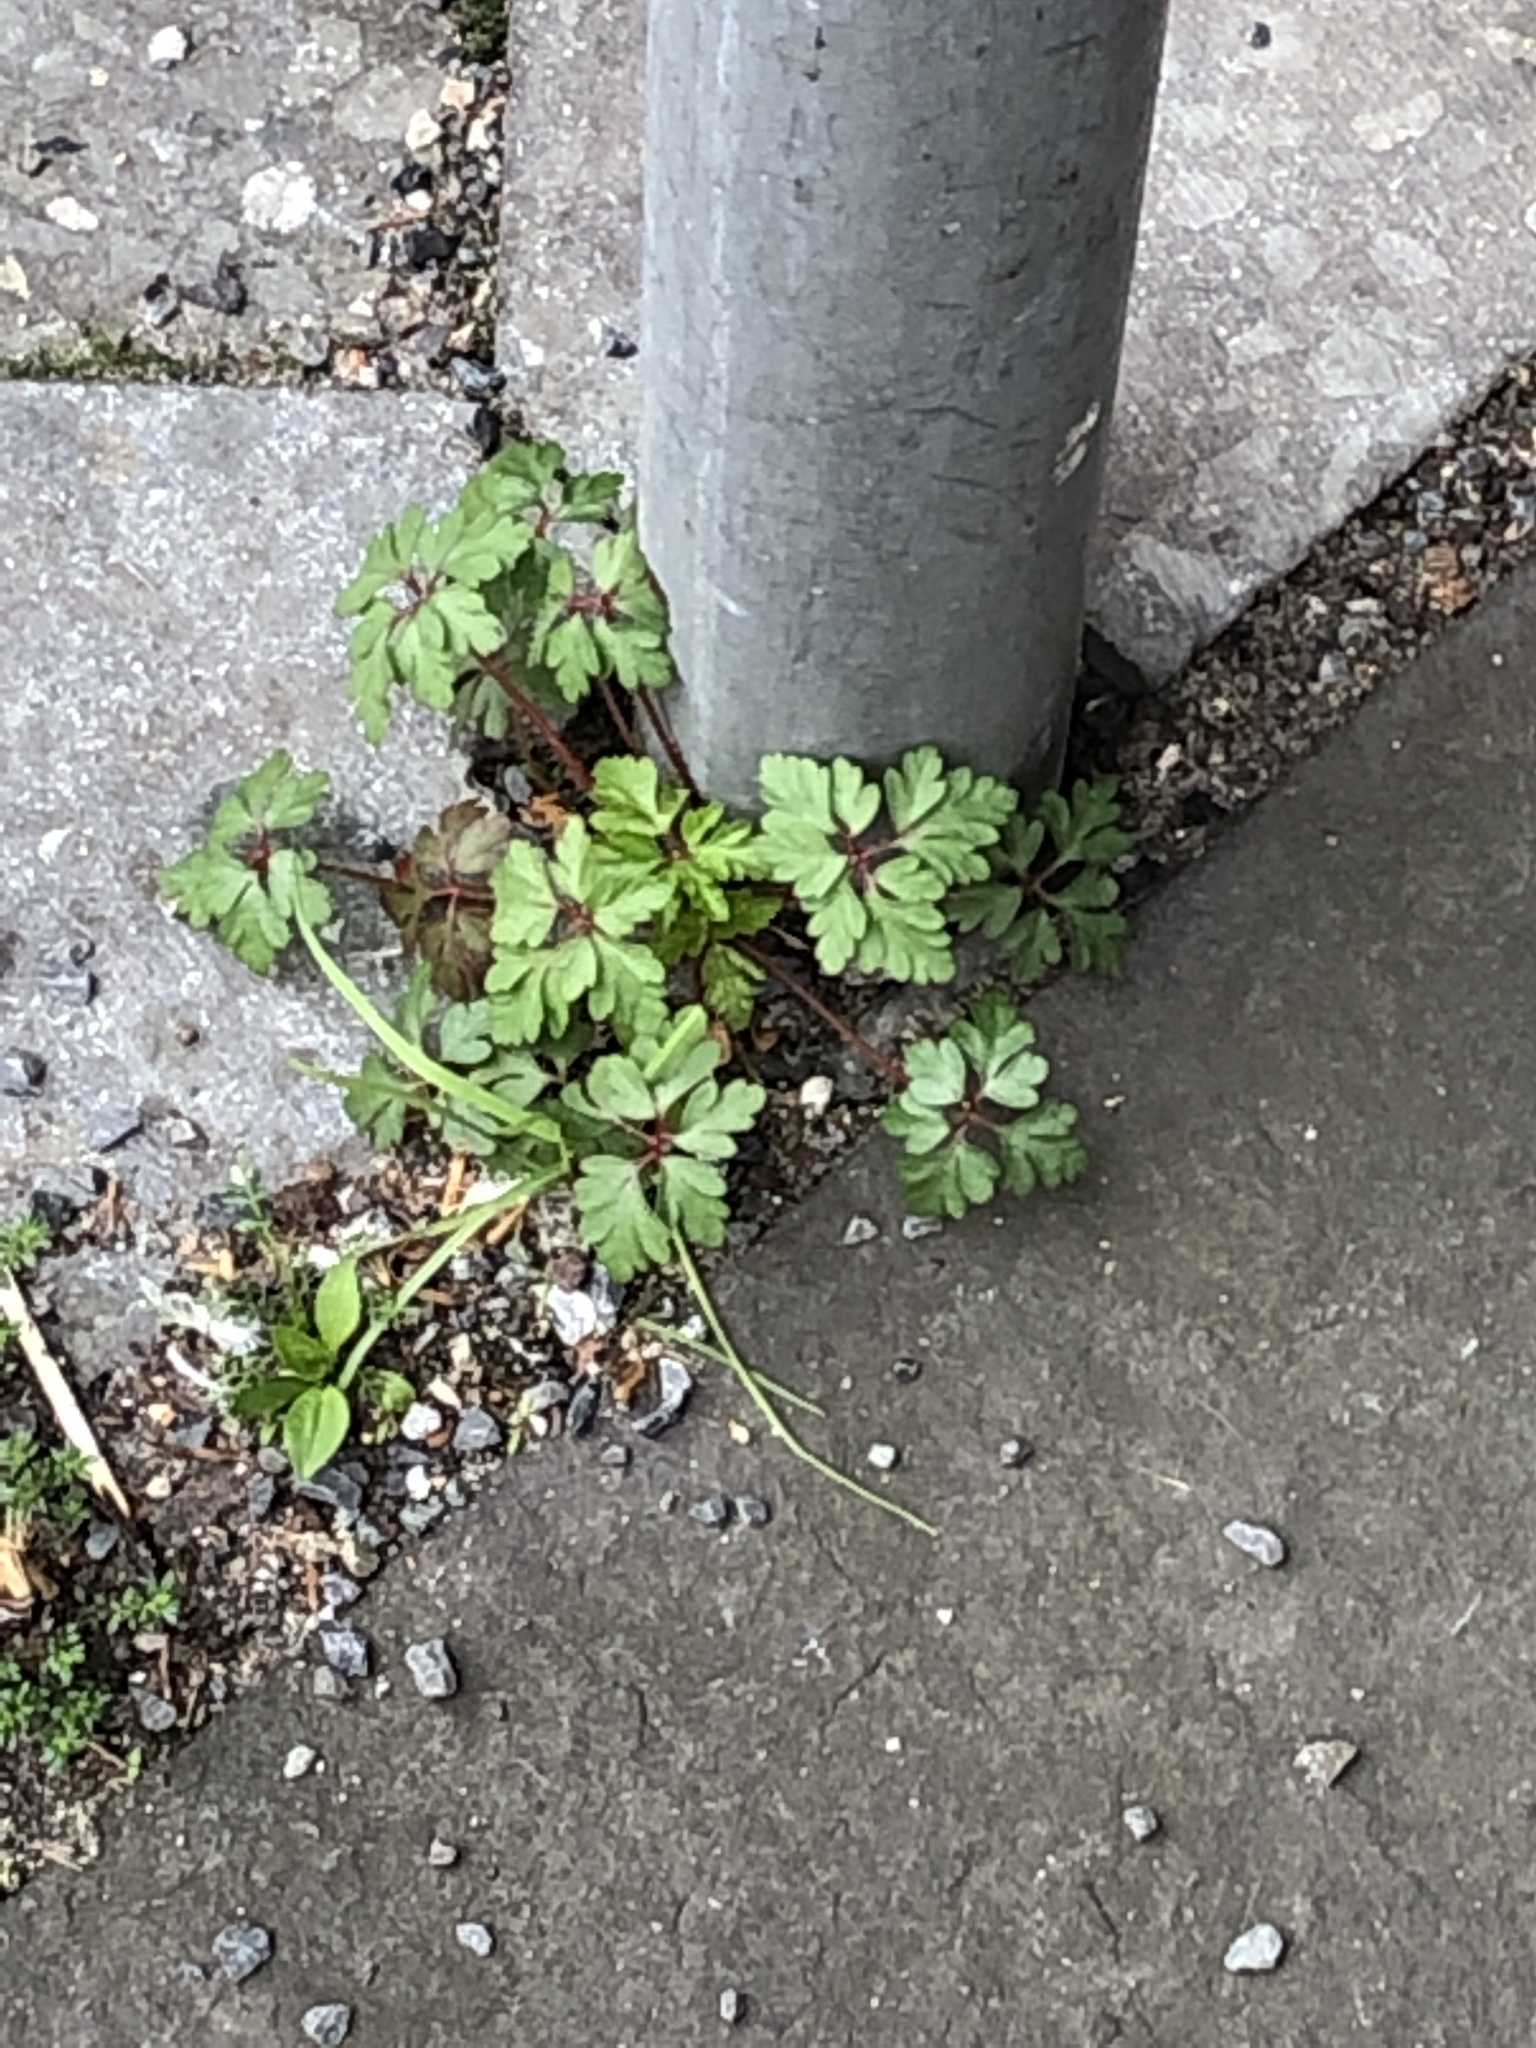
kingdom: Plantae
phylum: Tracheophyta
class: Magnoliopsida
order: Geraniales
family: Geraniaceae
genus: Geranium
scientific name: Geranium robertianum
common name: Herb-robert
